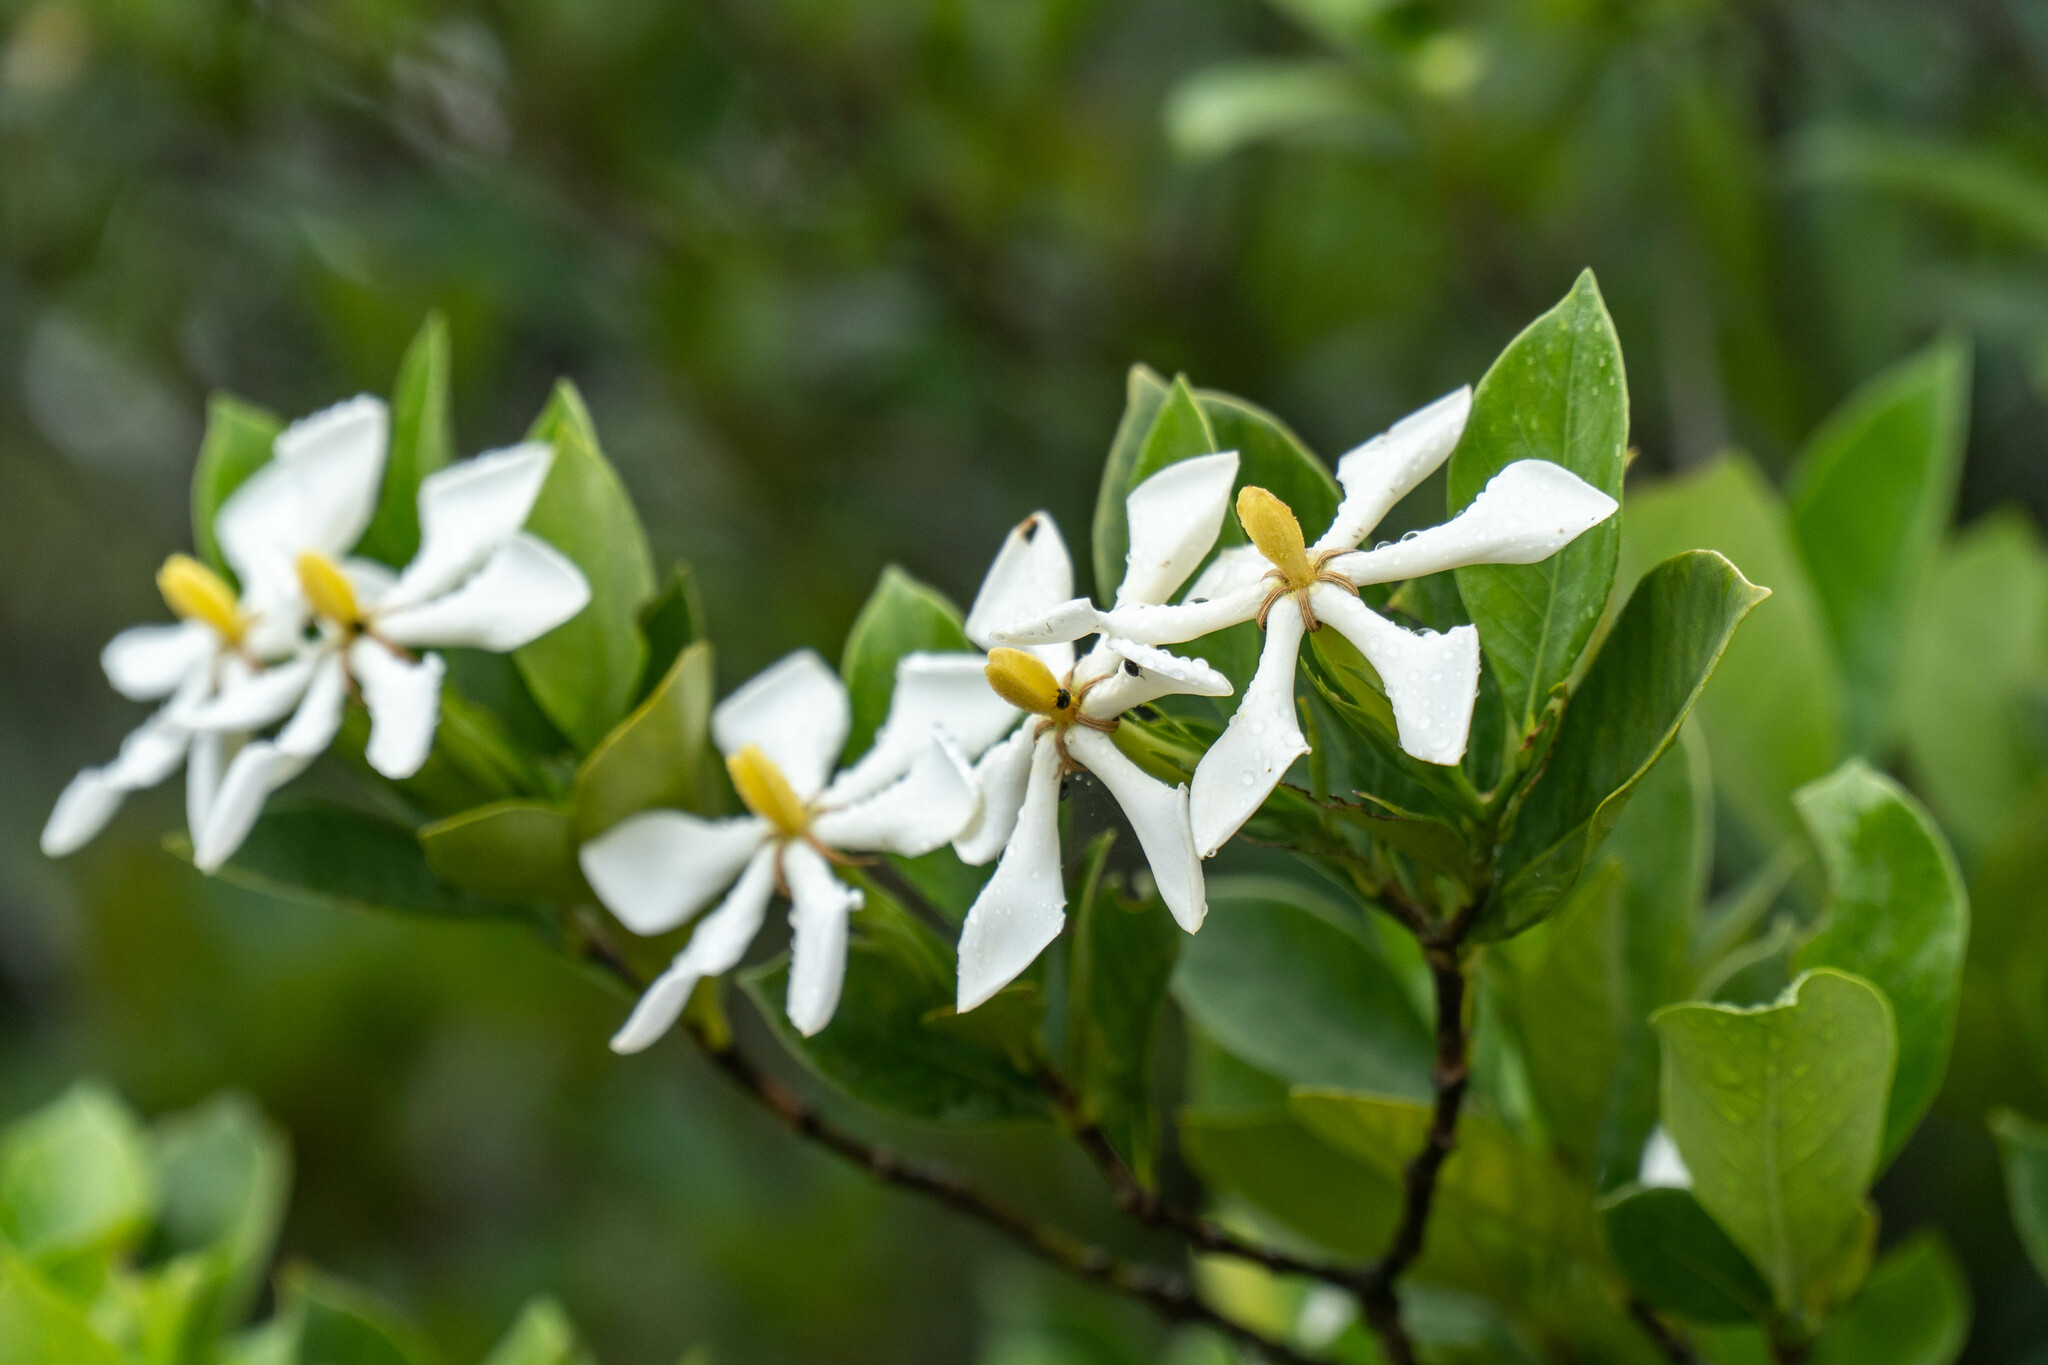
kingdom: Plantae
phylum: Tracheophyta
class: Magnoliopsida
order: Gentianales
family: Rubiaceae
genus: Gardenia
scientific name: Gardenia jasminoides
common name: Cape-jasmine
